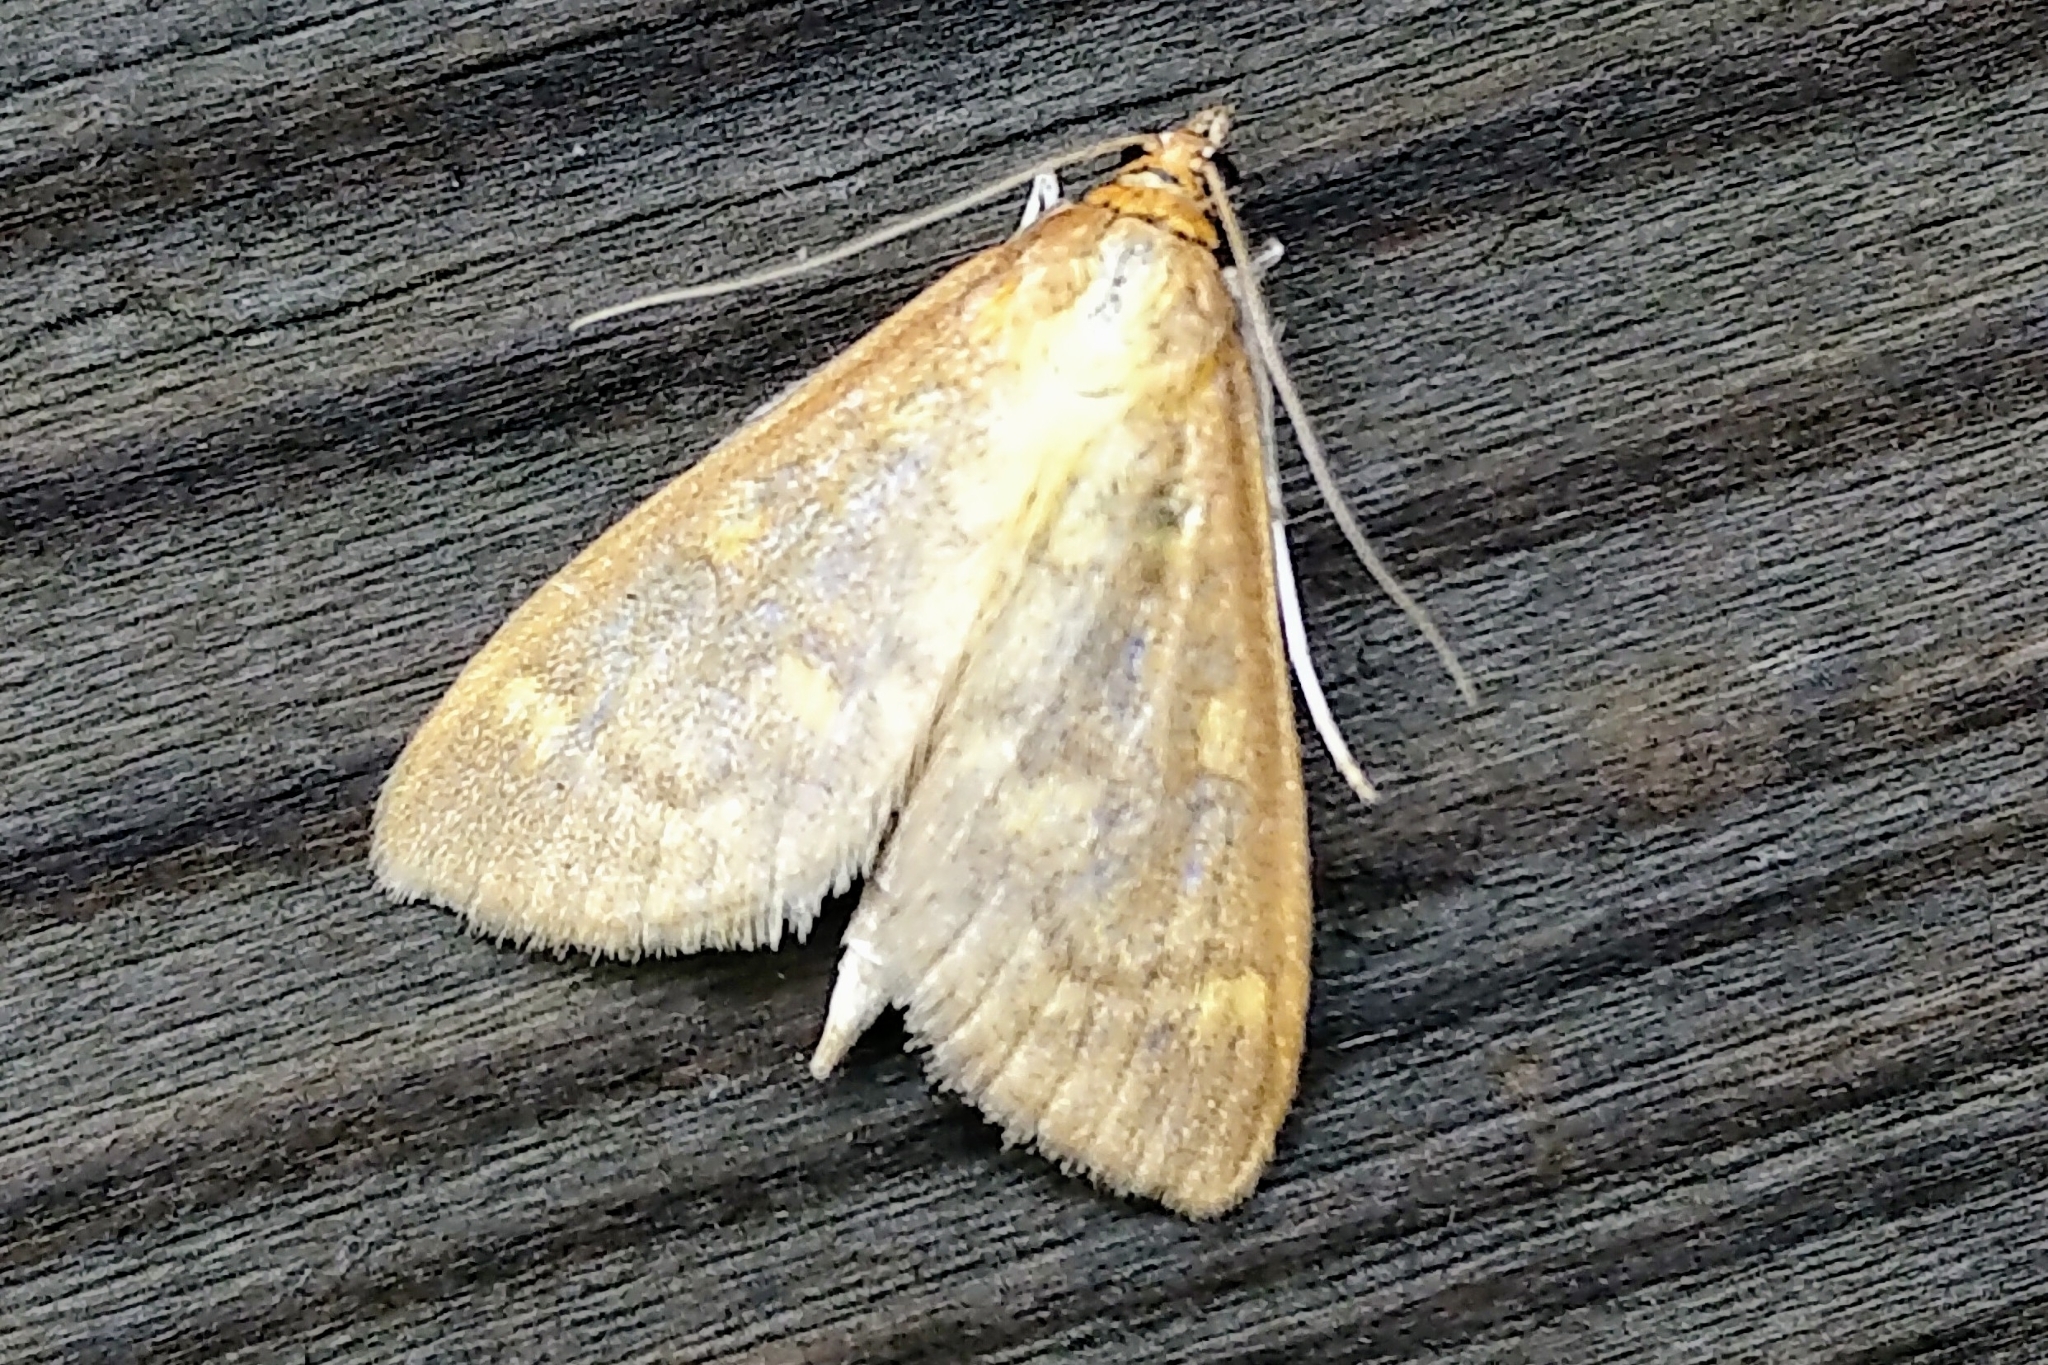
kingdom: Animalia
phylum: Arthropoda
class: Insecta
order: Lepidoptera
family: Crambidae
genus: Mecyna
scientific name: Mecyna submedialis
